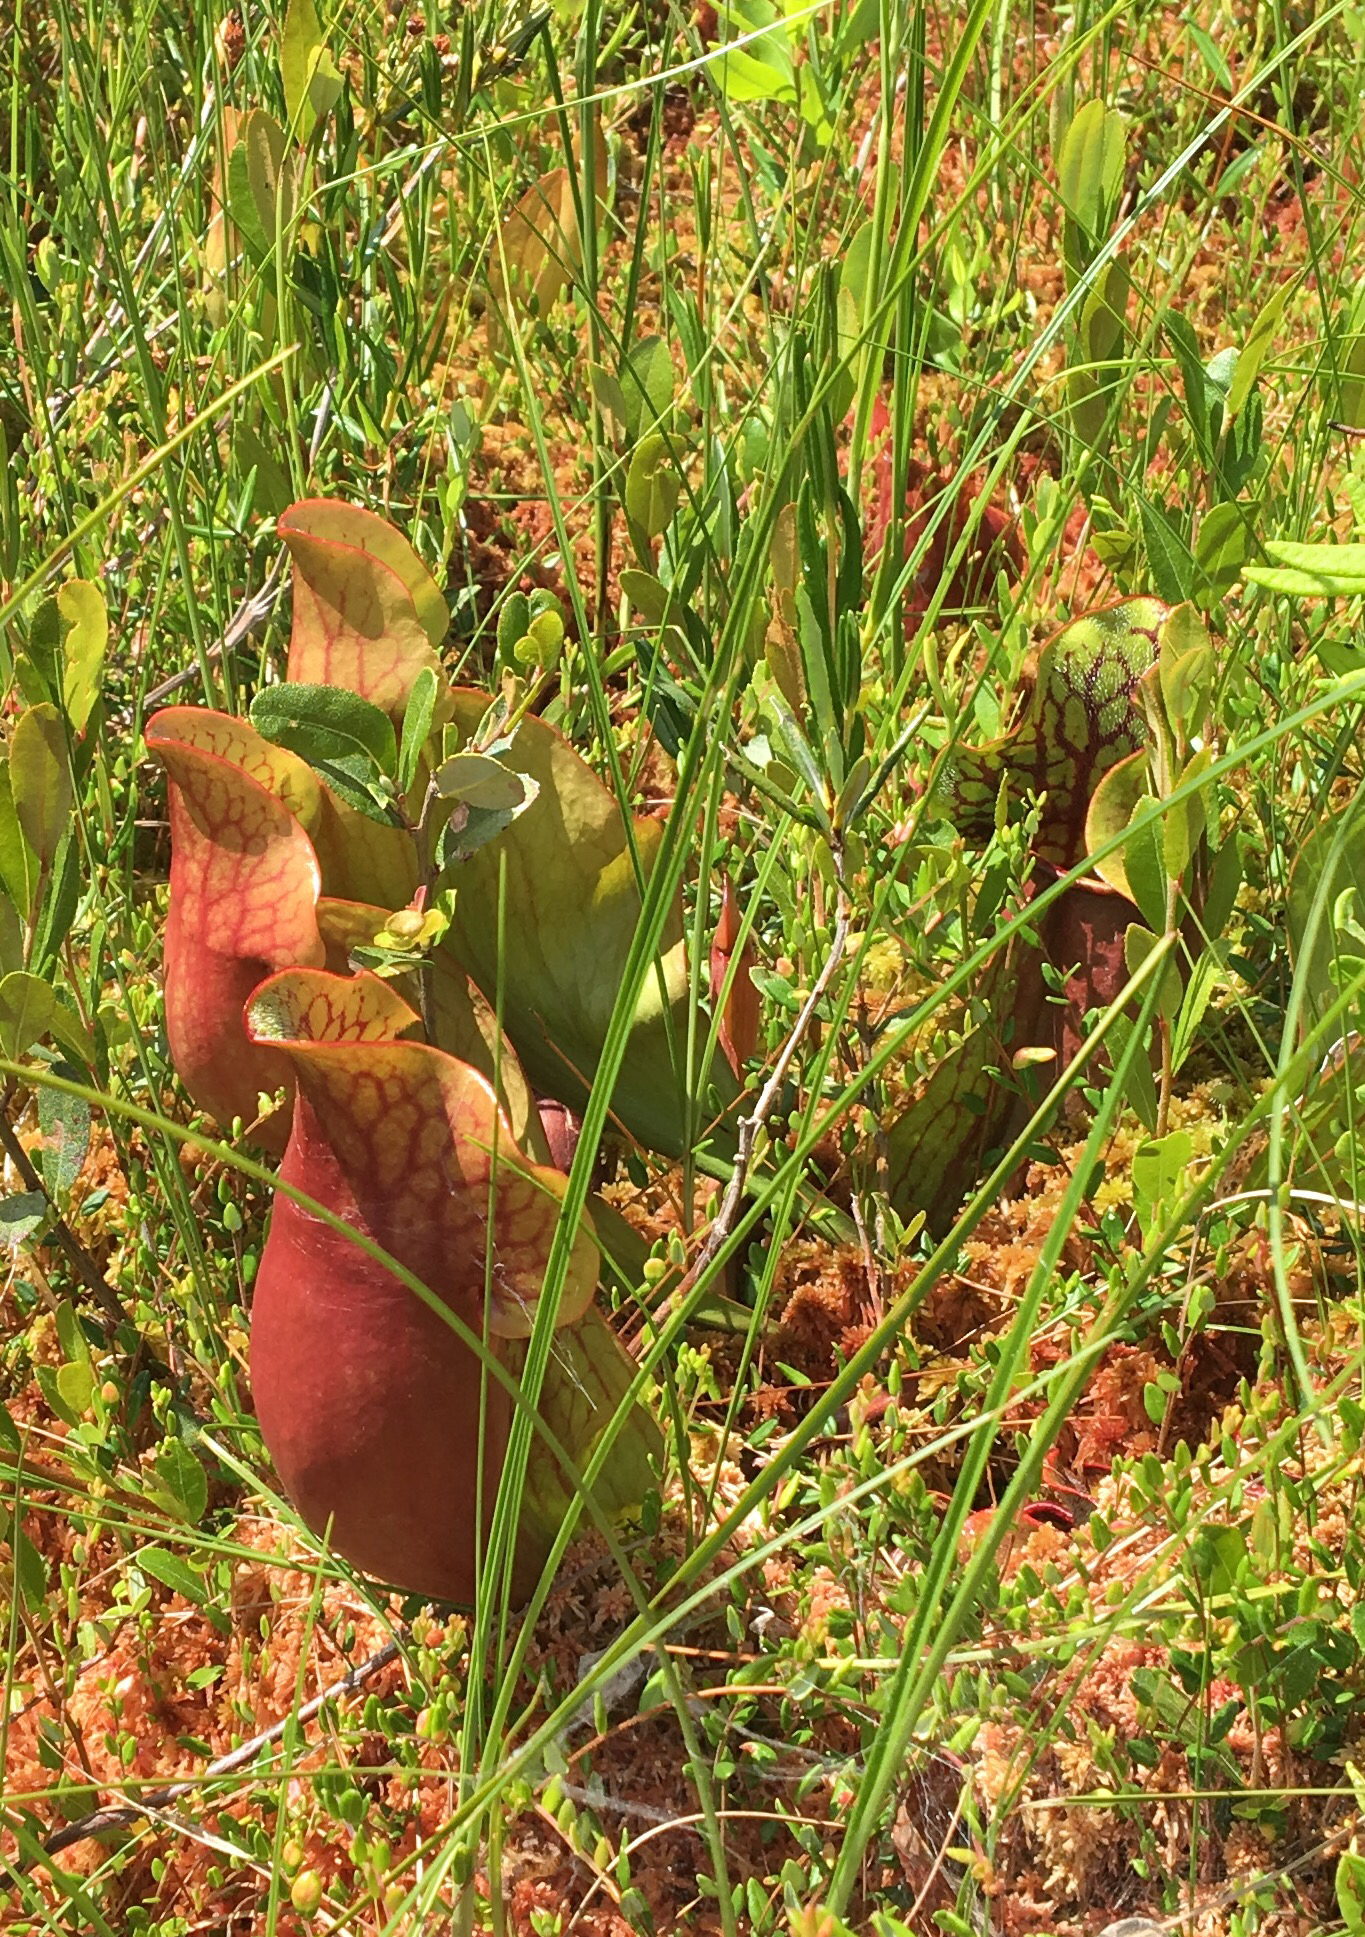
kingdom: Plantae
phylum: Tracheophyta
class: Magnoliopsida
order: Ericales
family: Sarraceniaceae
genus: Sarracenia
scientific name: Sarracenia purpurea
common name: Pitcherplant
